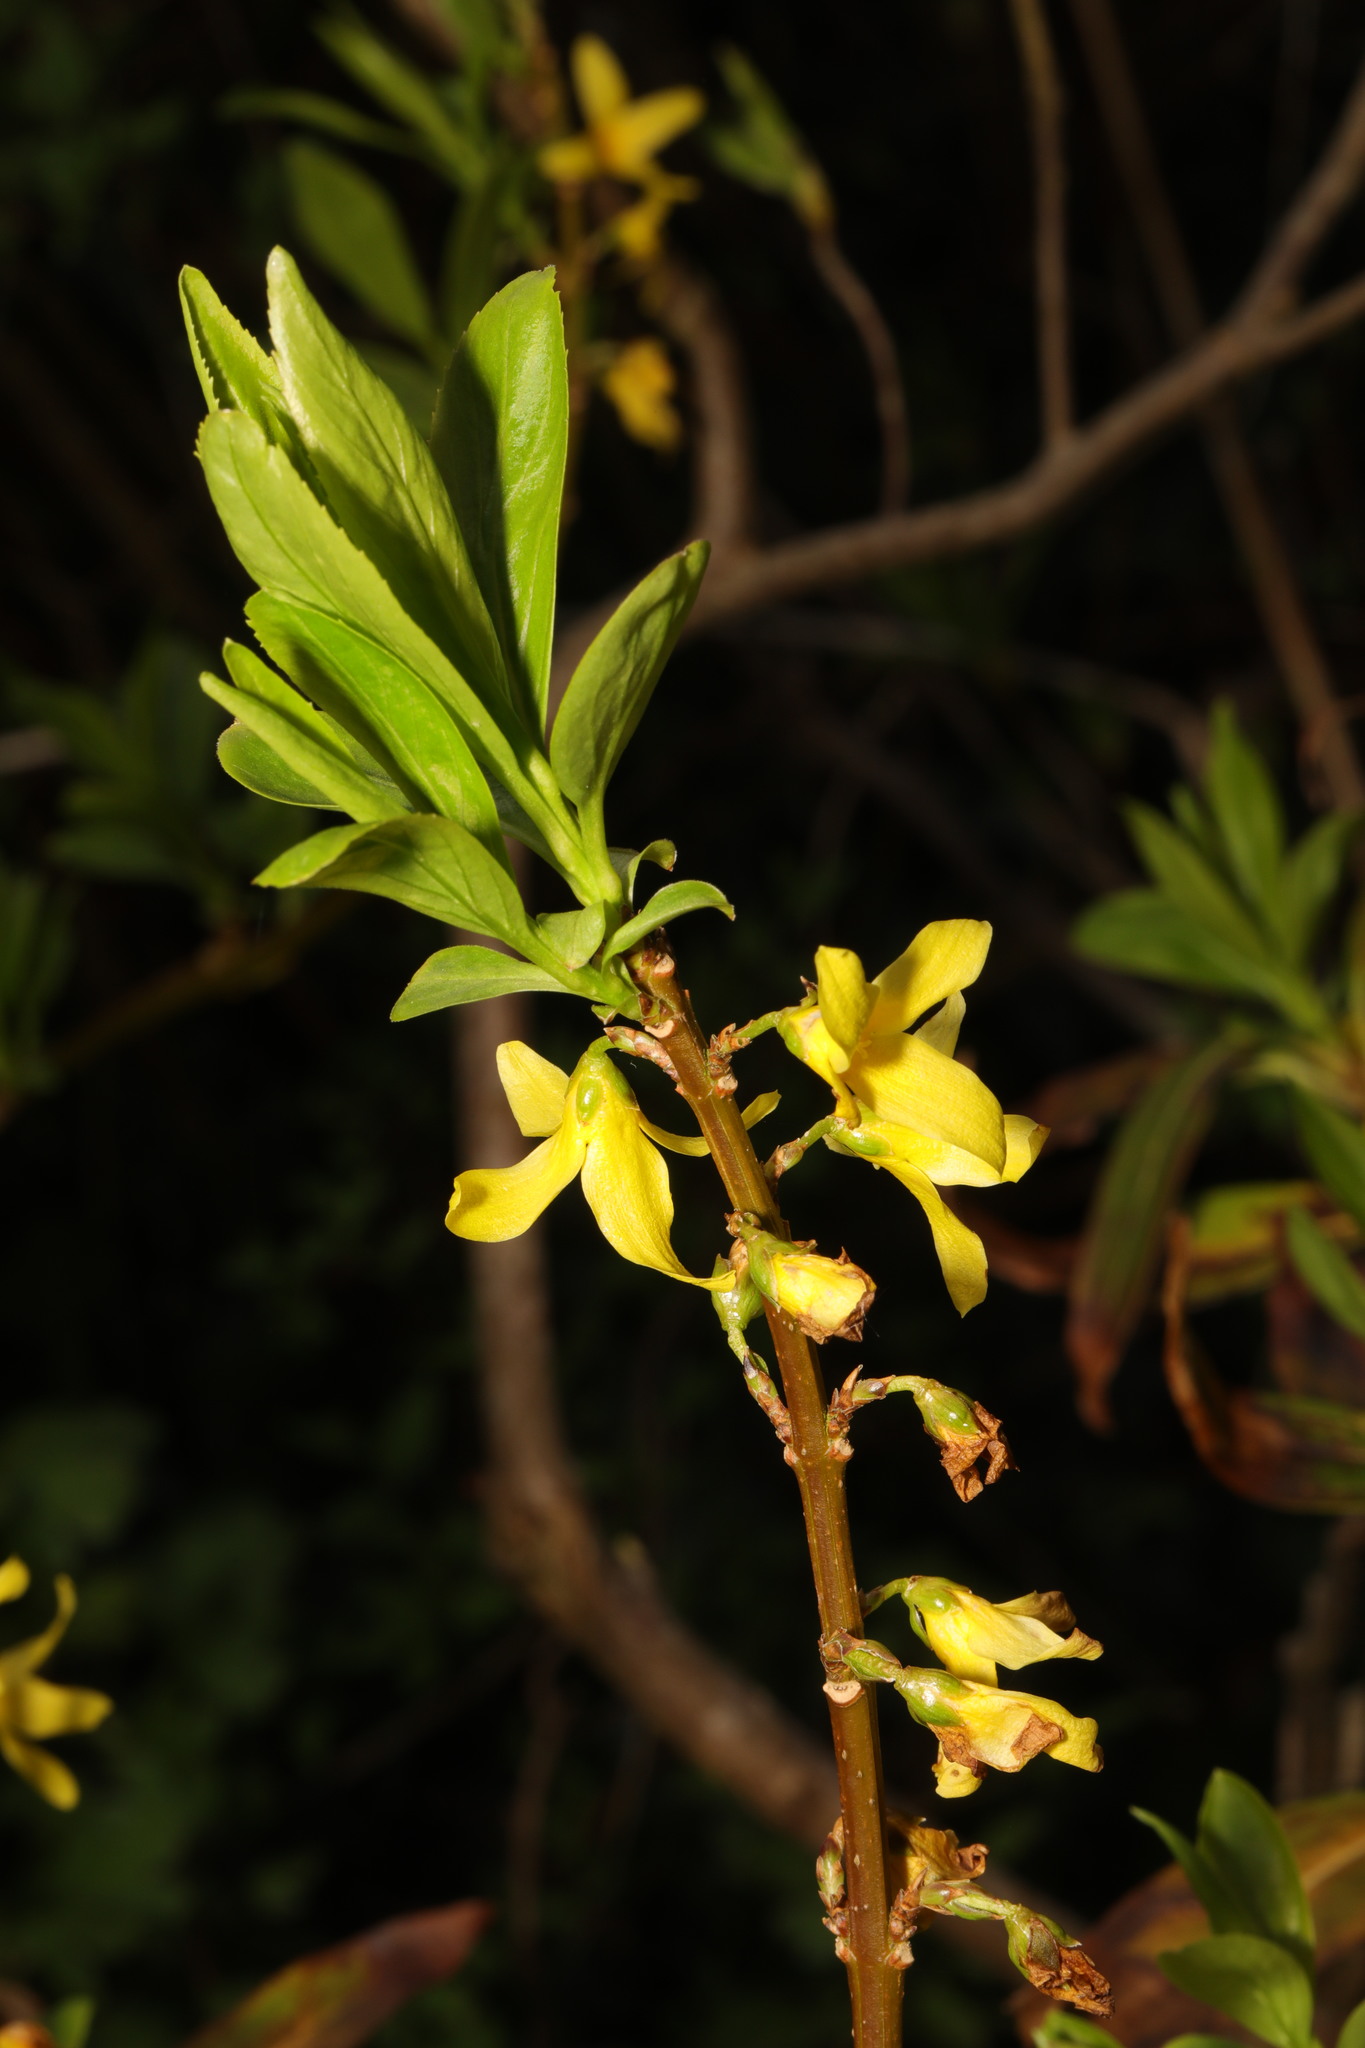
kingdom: Plantae
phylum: Tracheophyta
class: Magnoliopsida
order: Lamiales
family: Oleaceae
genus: Forsythia
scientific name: Forsythia intermedia
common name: Forsythia
